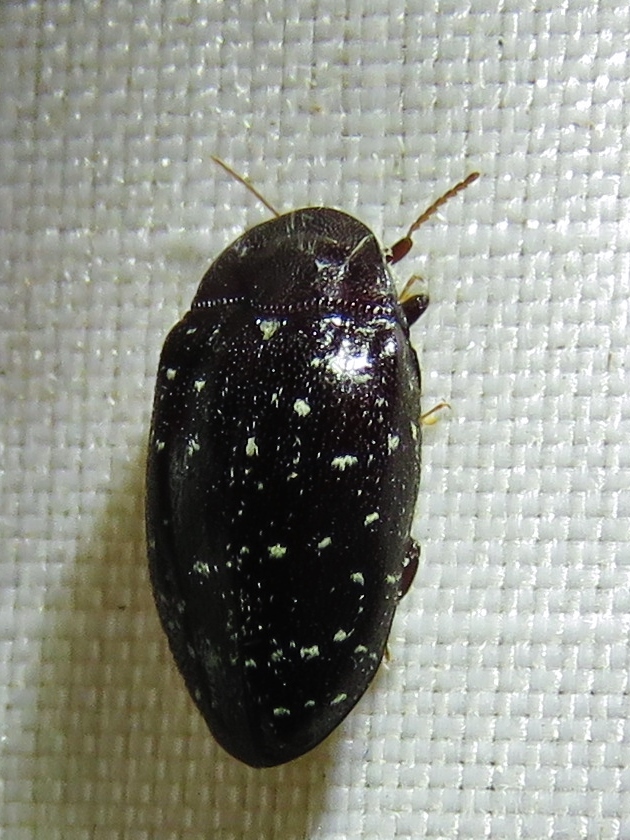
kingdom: Animalia
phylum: Arthropoda
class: Insecta
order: Coleoptera
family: Chelonariidae
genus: Chelonarium
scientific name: Chelonarium lecontei
